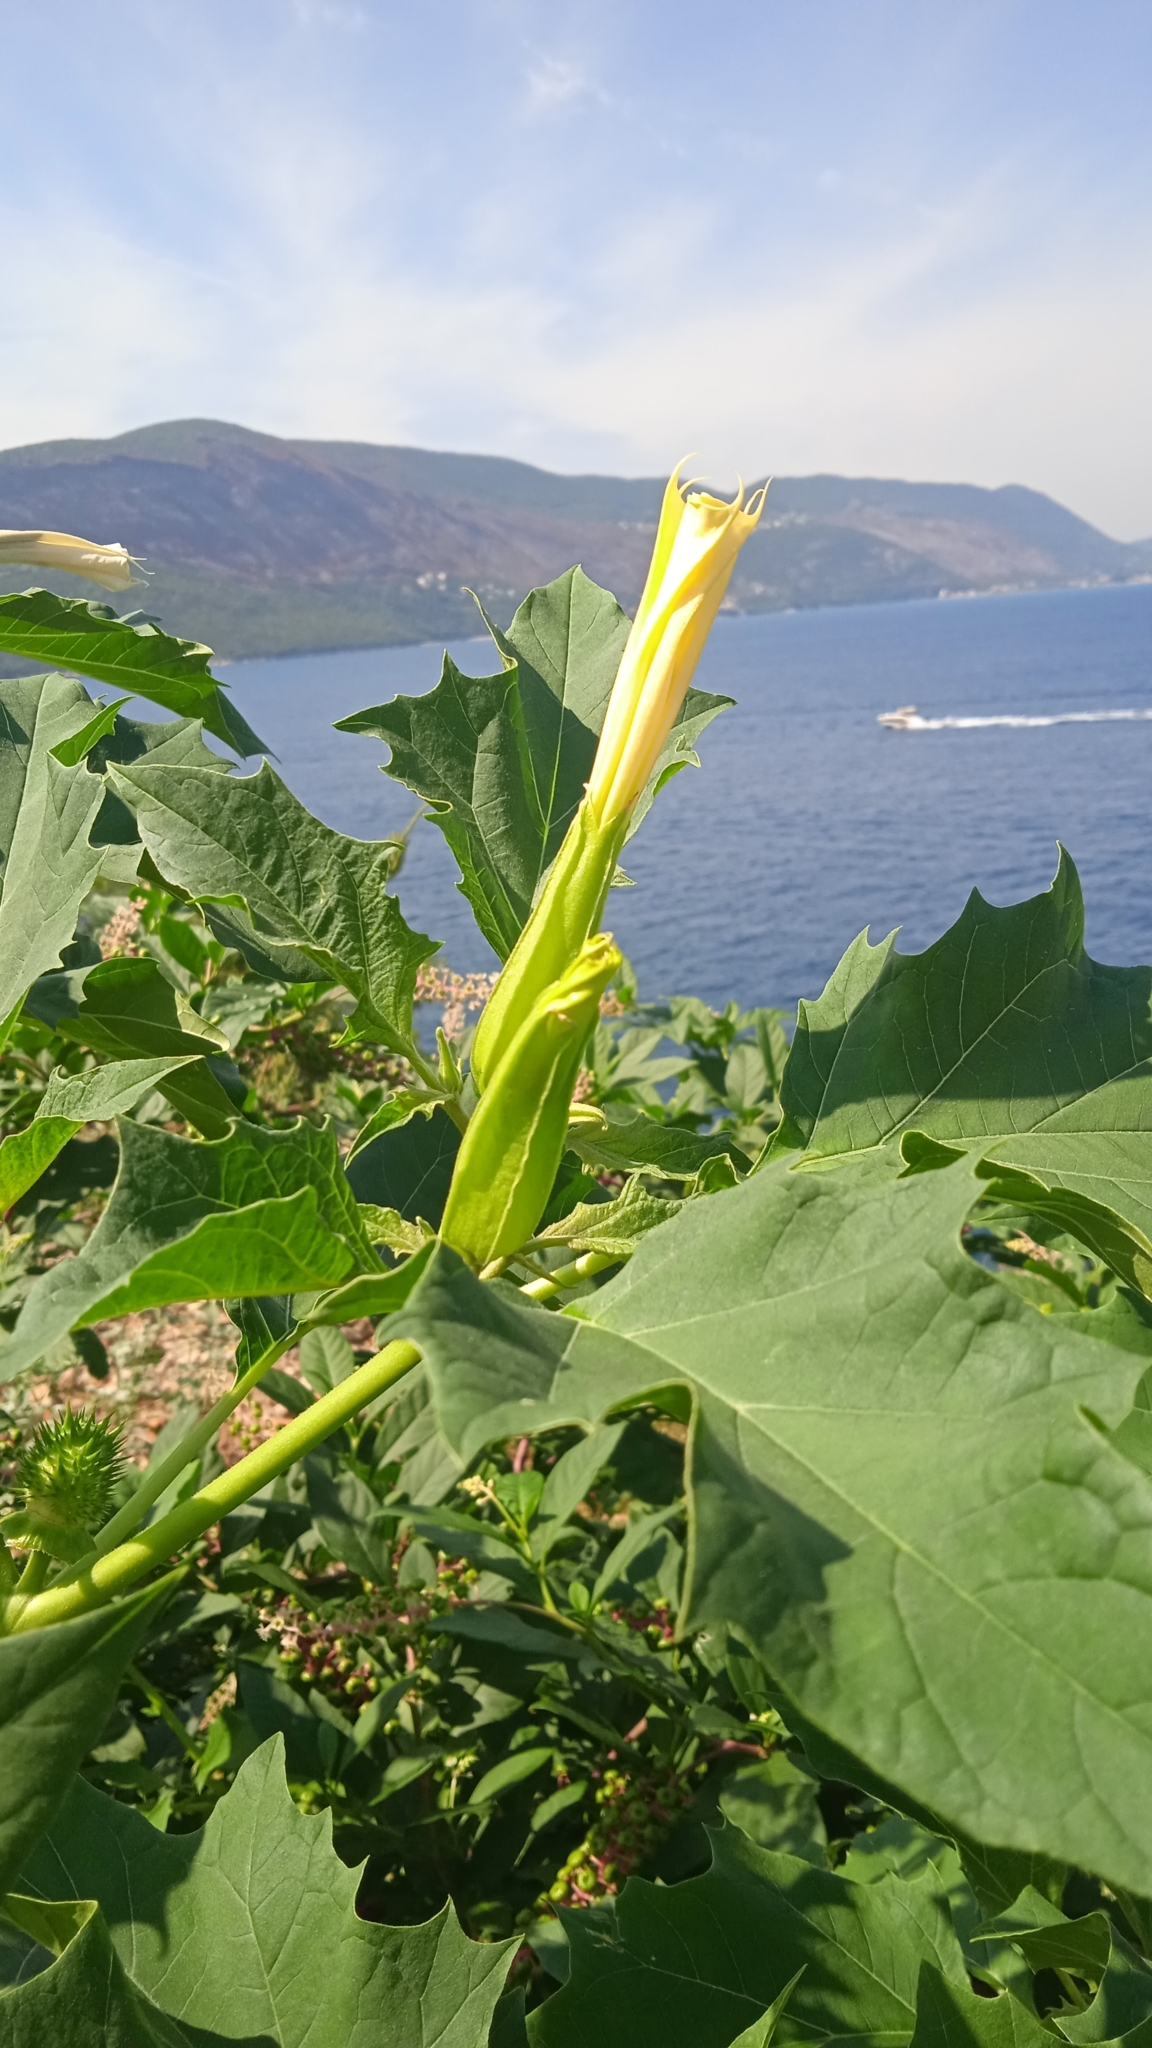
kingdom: Plantae
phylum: Tracheophyta
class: Magnoliopsida
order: Solanales
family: Solanaceae
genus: Datura
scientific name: Datura stramonium
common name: Thorn-apple
